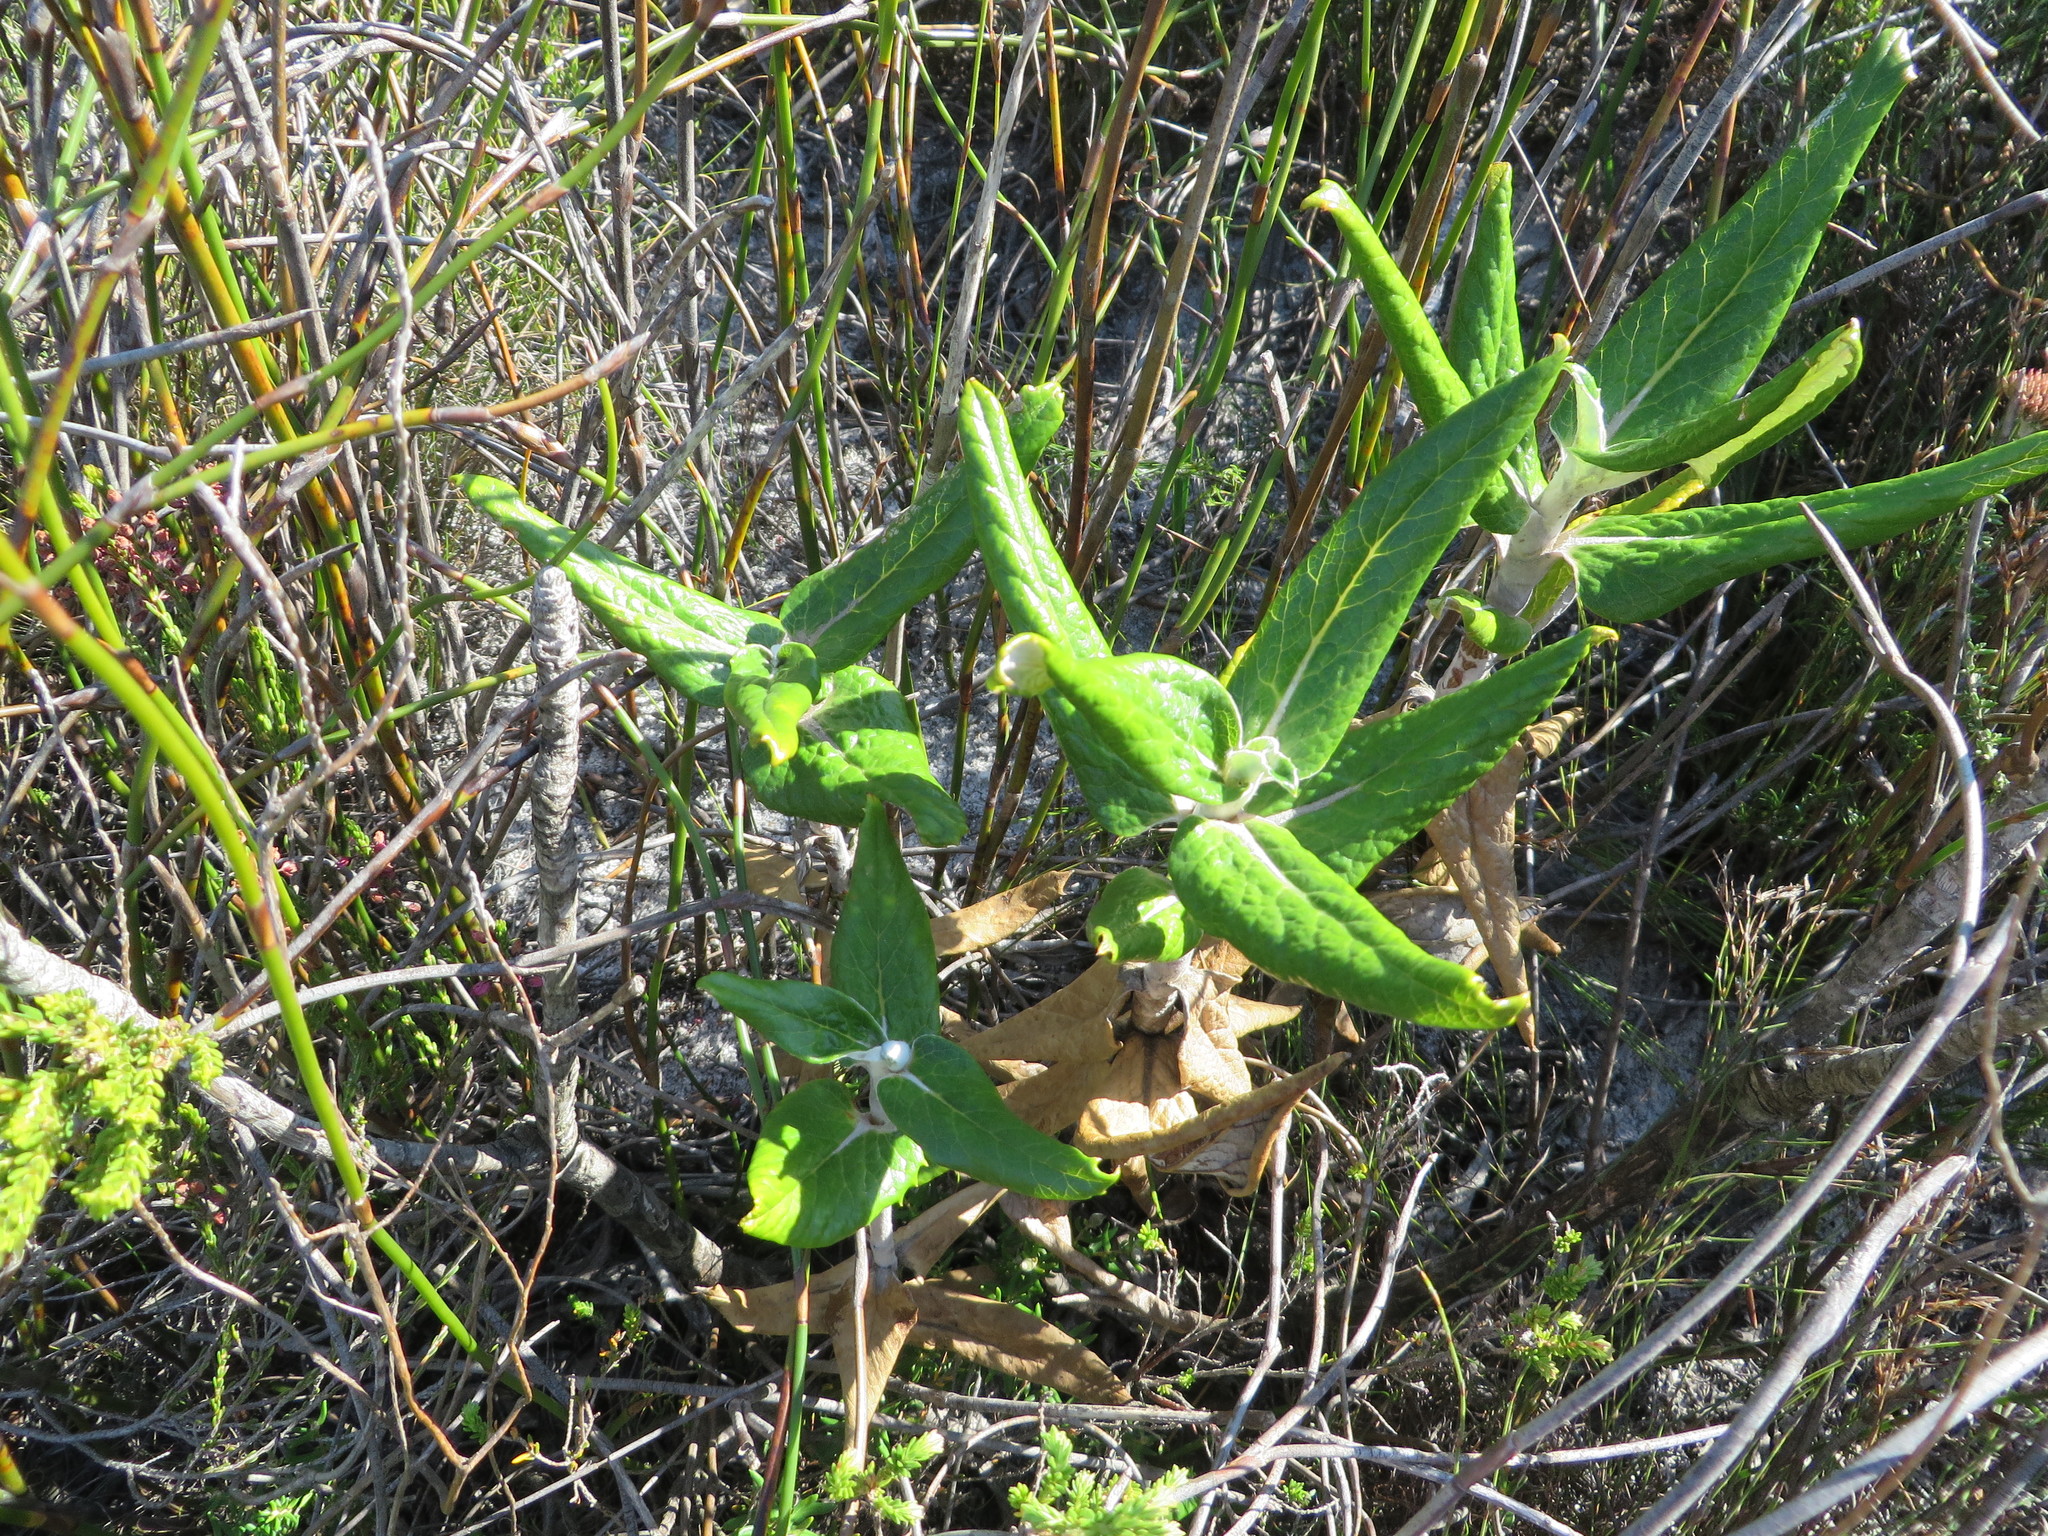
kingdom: Plantae
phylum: Tracheophyta
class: Magnoliopsida
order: Apiales
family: Apiaceae
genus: Hermas
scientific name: Hermas villosa
